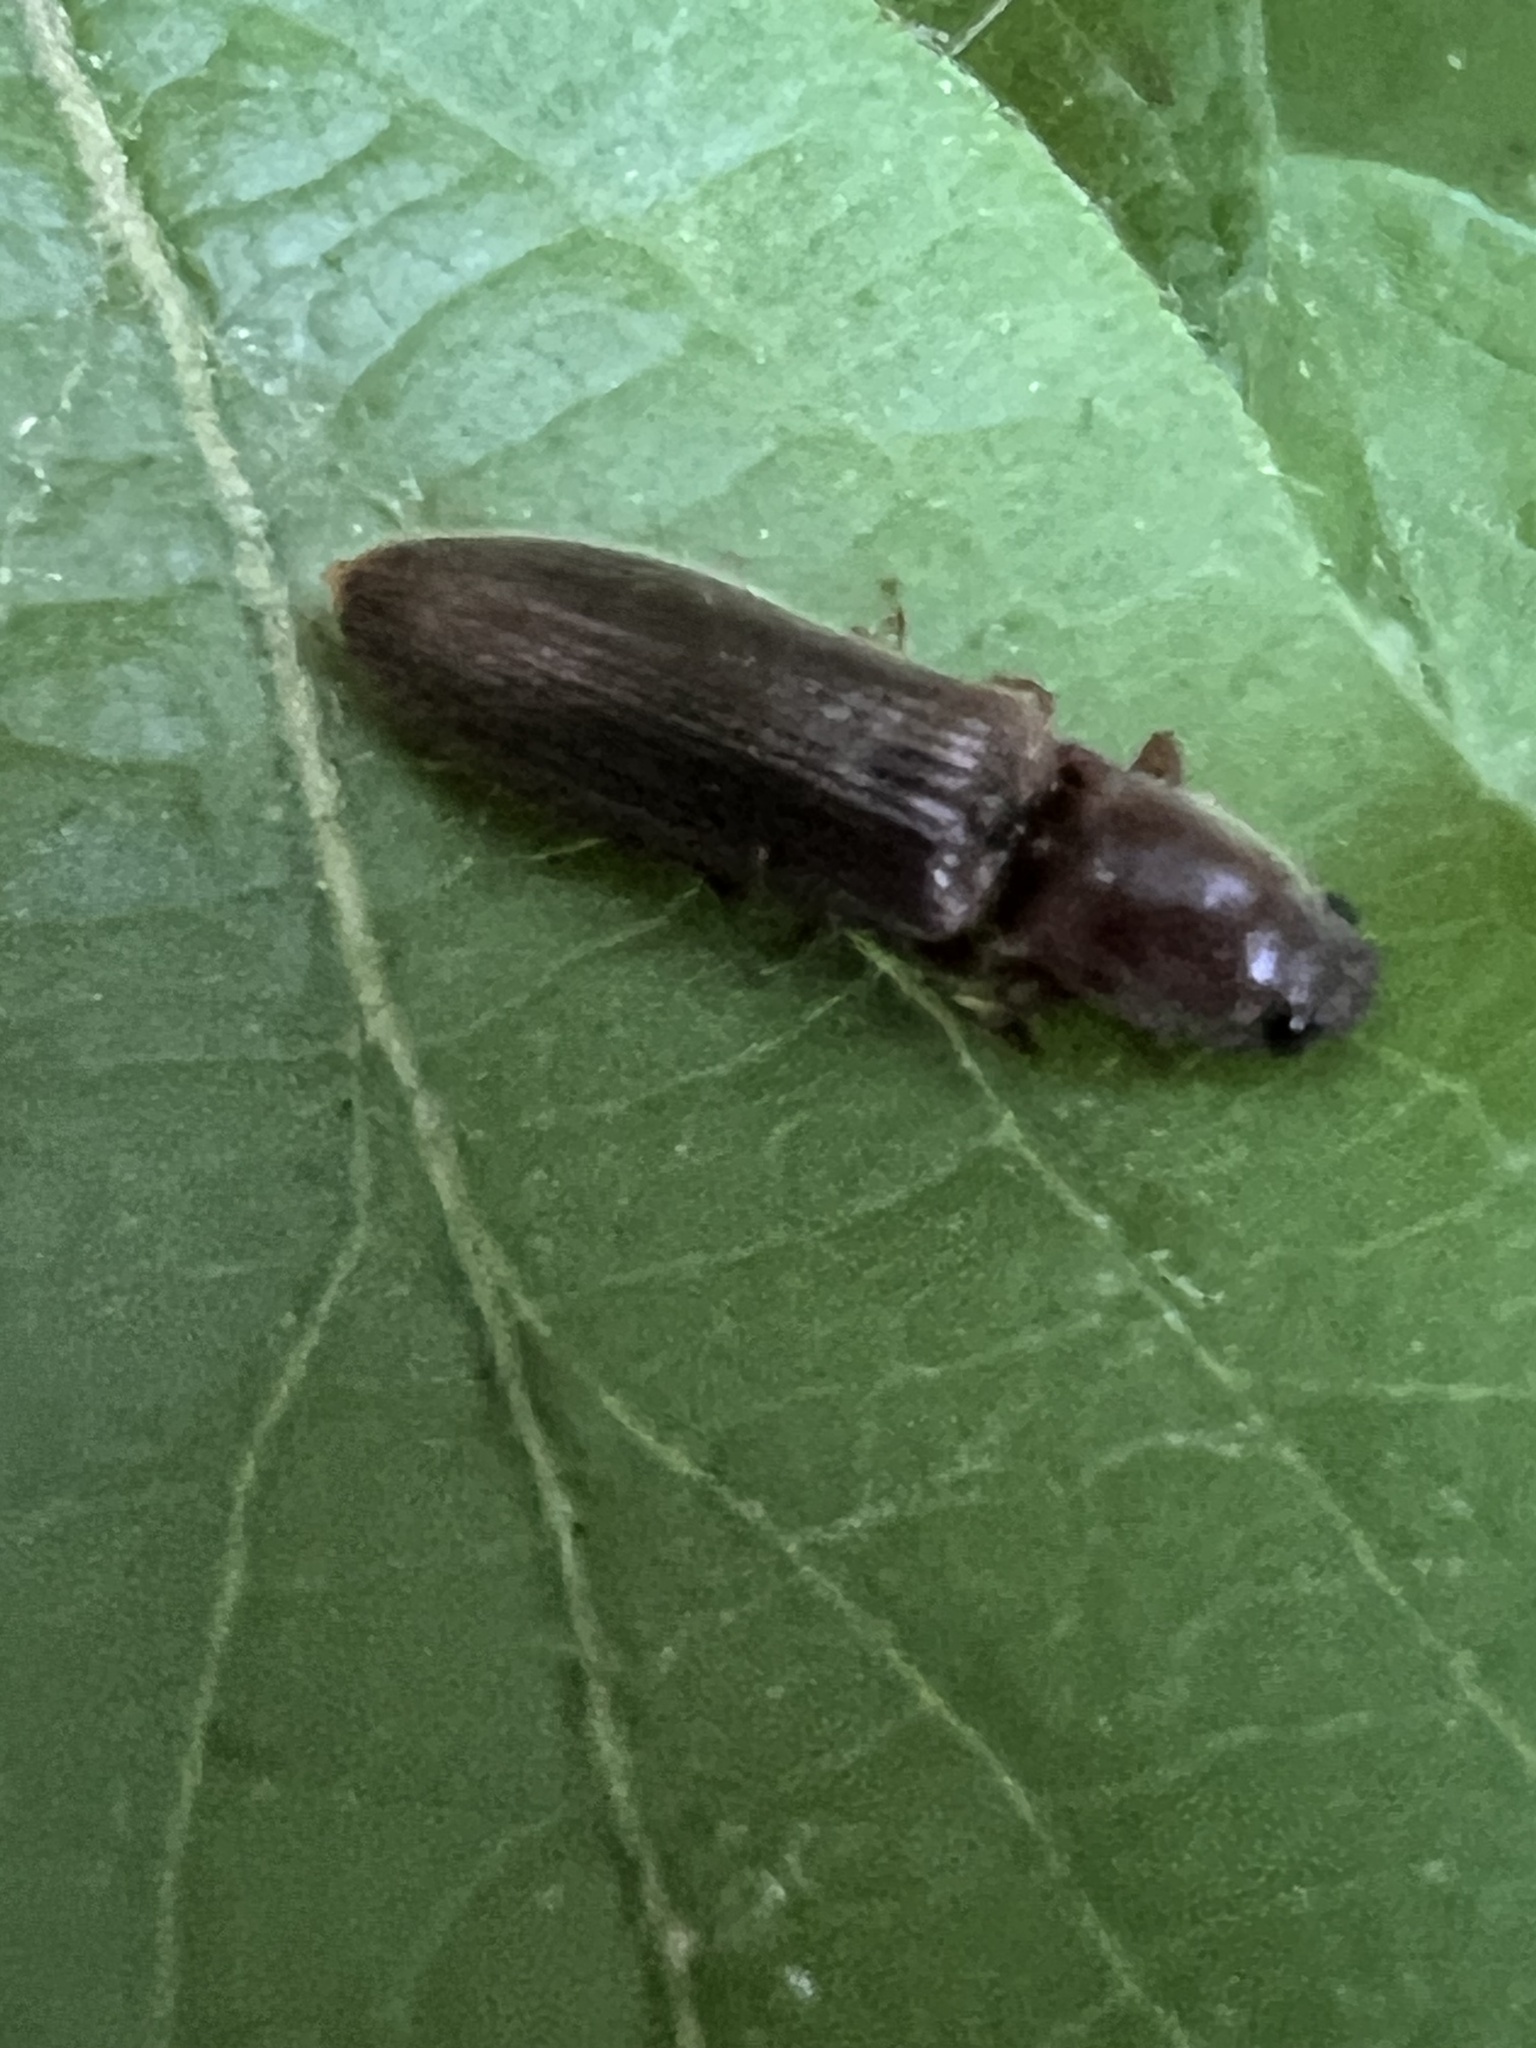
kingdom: Animalia
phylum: Arthropoda
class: Insecta
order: Coleoptera
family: Elateridae
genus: Athous
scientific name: Athous brightwelli
